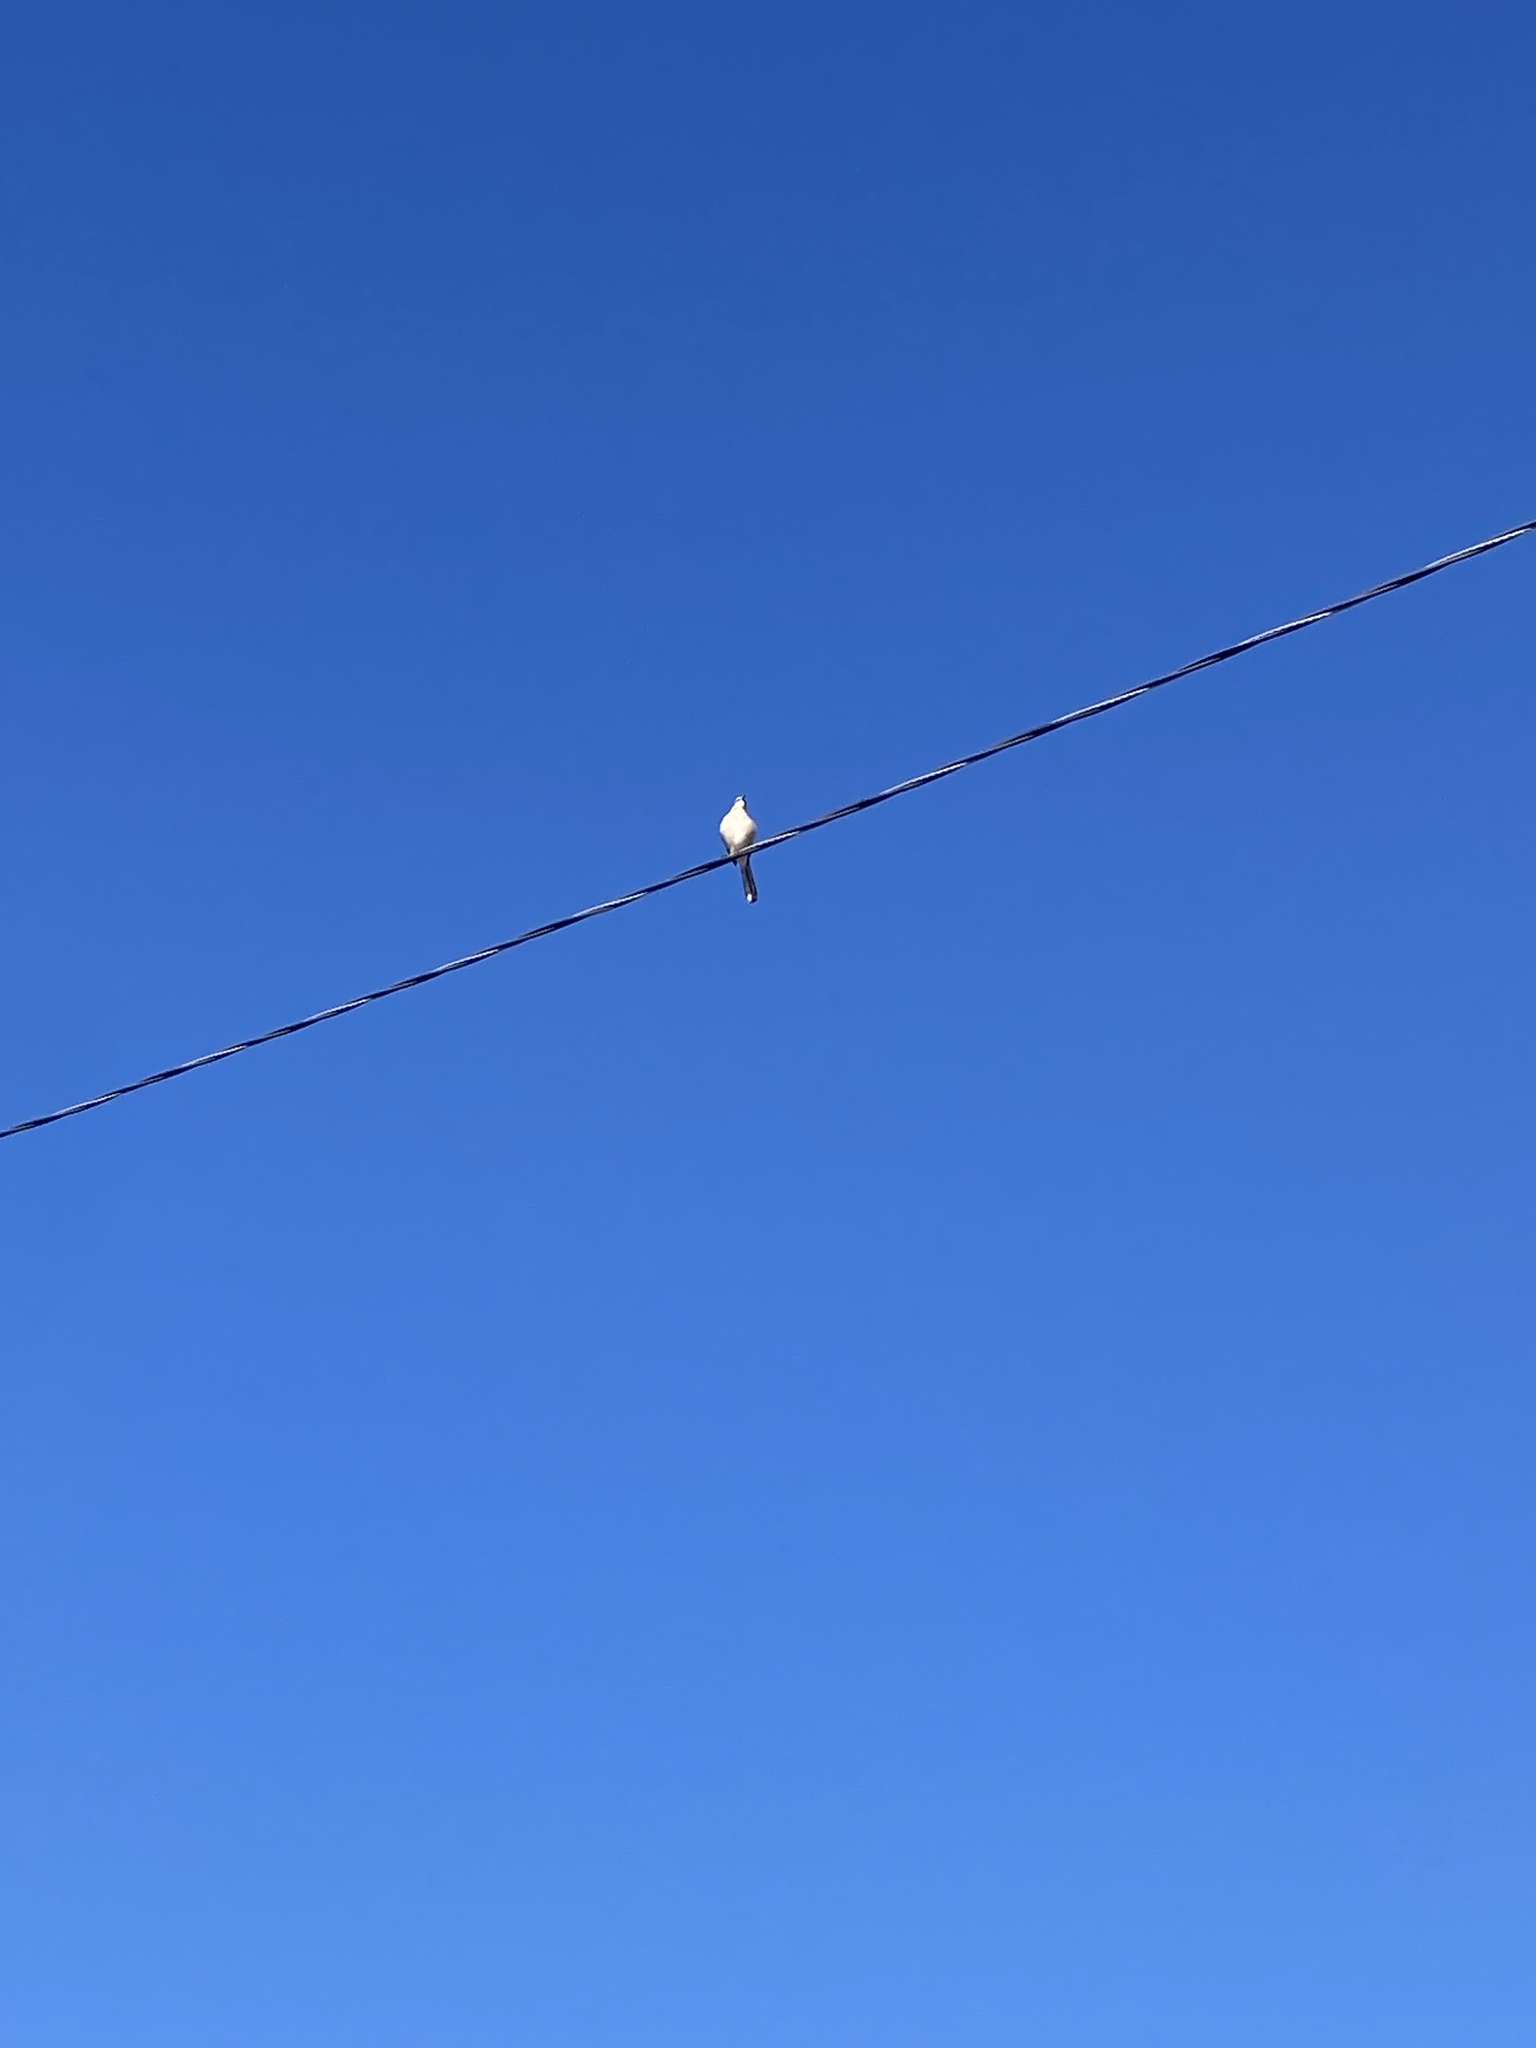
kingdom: Animalia
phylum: Chordata
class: Aves
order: Passeriformes
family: Mimidae
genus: Mimus
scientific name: Mimus polyglottos
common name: Northern mockingbird
